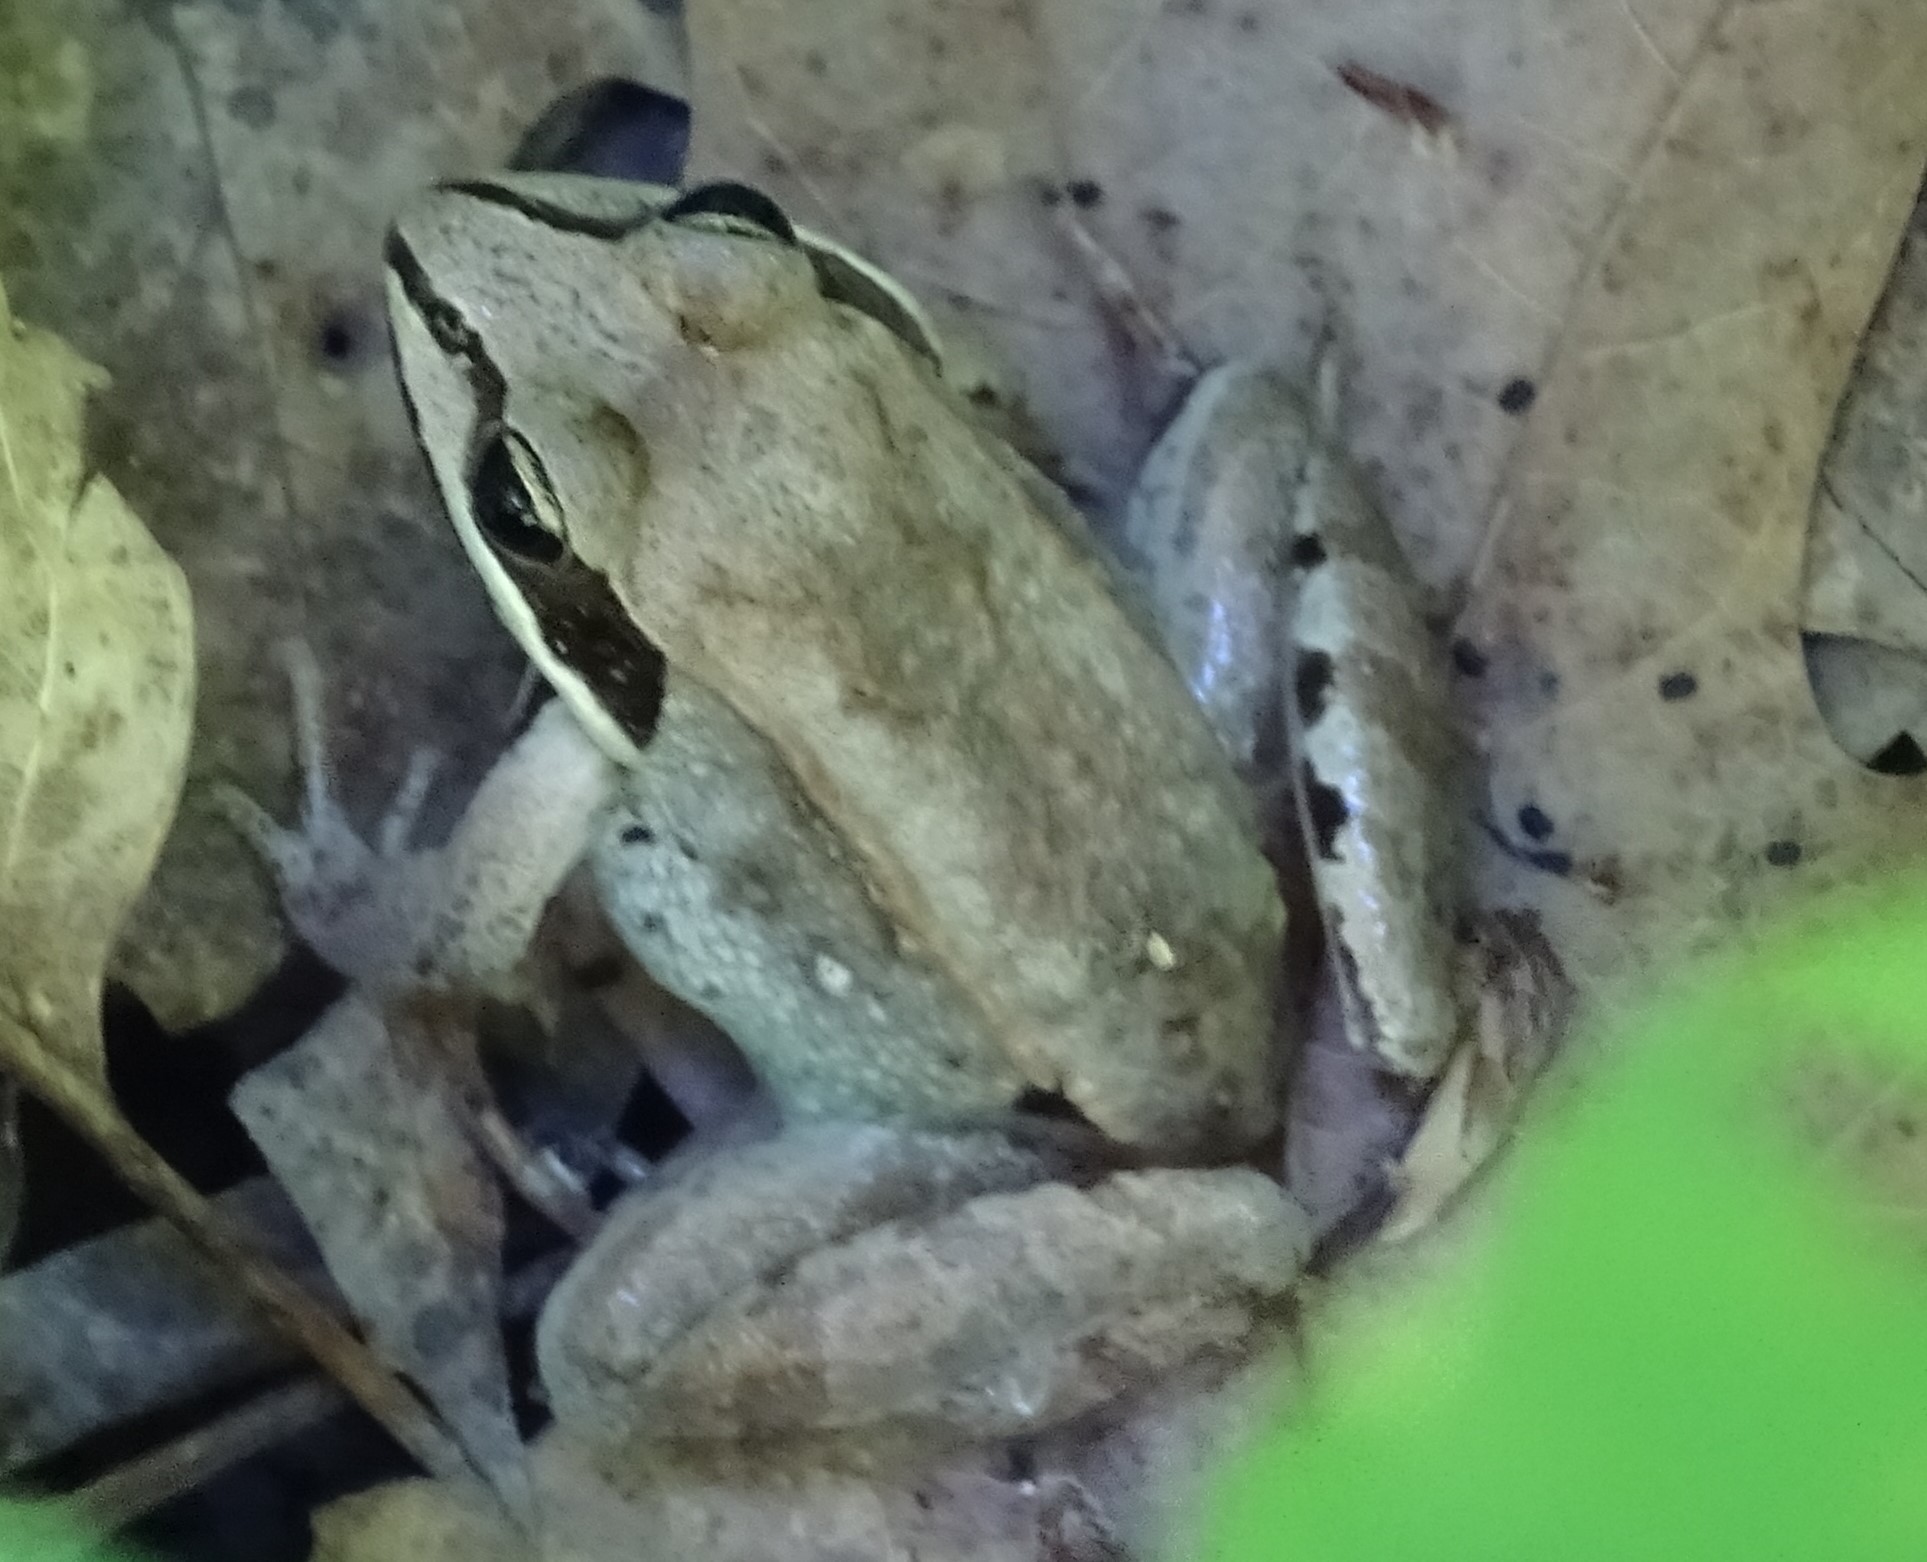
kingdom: Animalia
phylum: Chordata
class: Amphibia
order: Anura
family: Ranidae
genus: Lithobates
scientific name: Lithobates sylvaticus
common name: Wood frog
